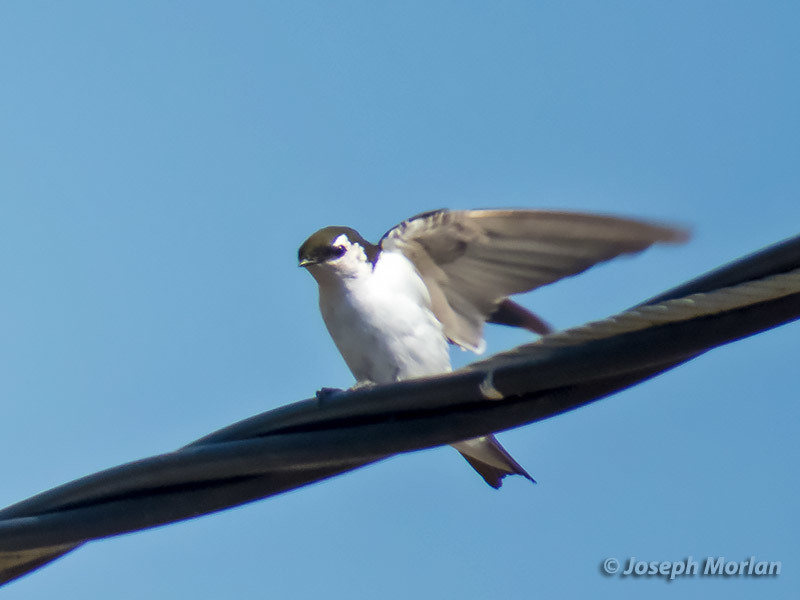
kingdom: Animalia
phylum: Chordata
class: Aves
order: Passeriformes
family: Hirundinidae
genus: Tachycineta
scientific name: Tachycineta thalassina
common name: Violet-green swallow
